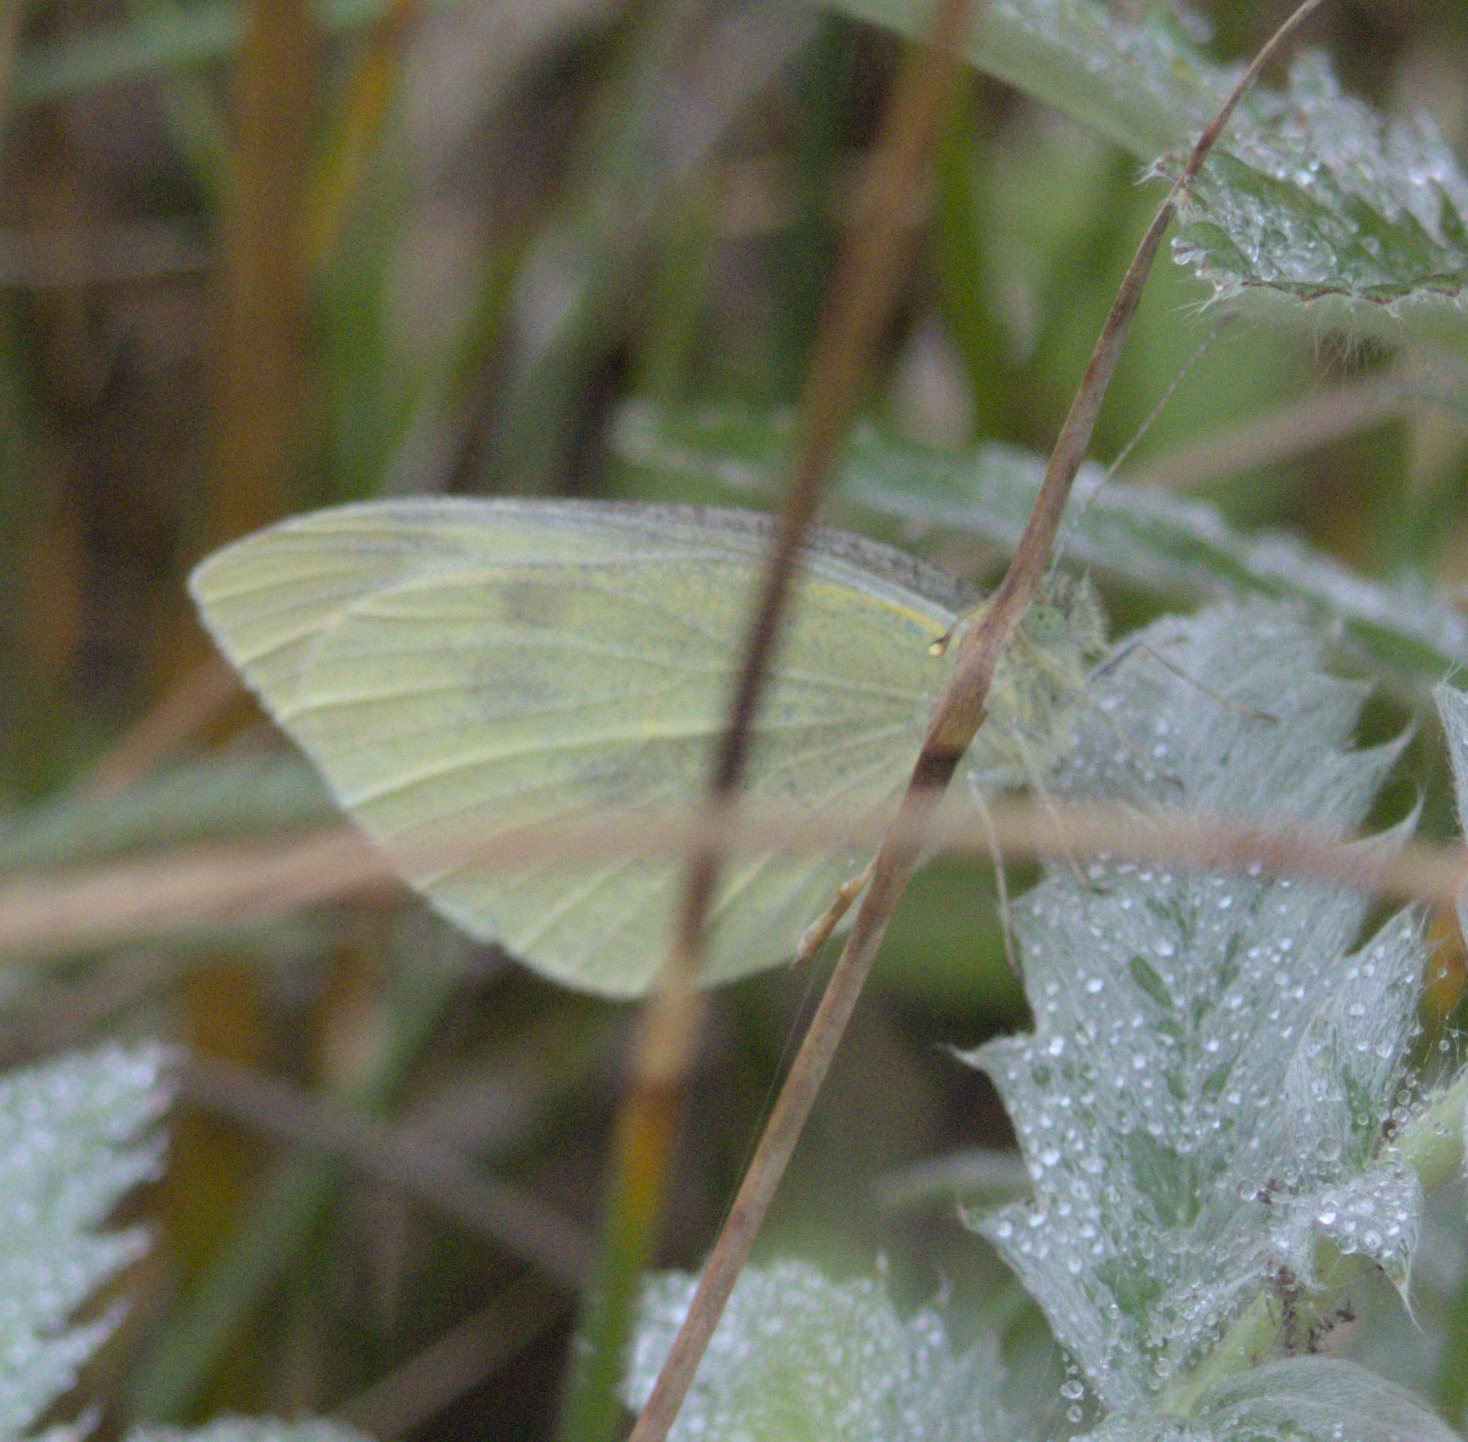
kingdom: Animalia
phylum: Arthropoda
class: Insecta
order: Lepidoptera
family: Pieridae
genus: Pieris
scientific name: Pieris rapae
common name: Small white
